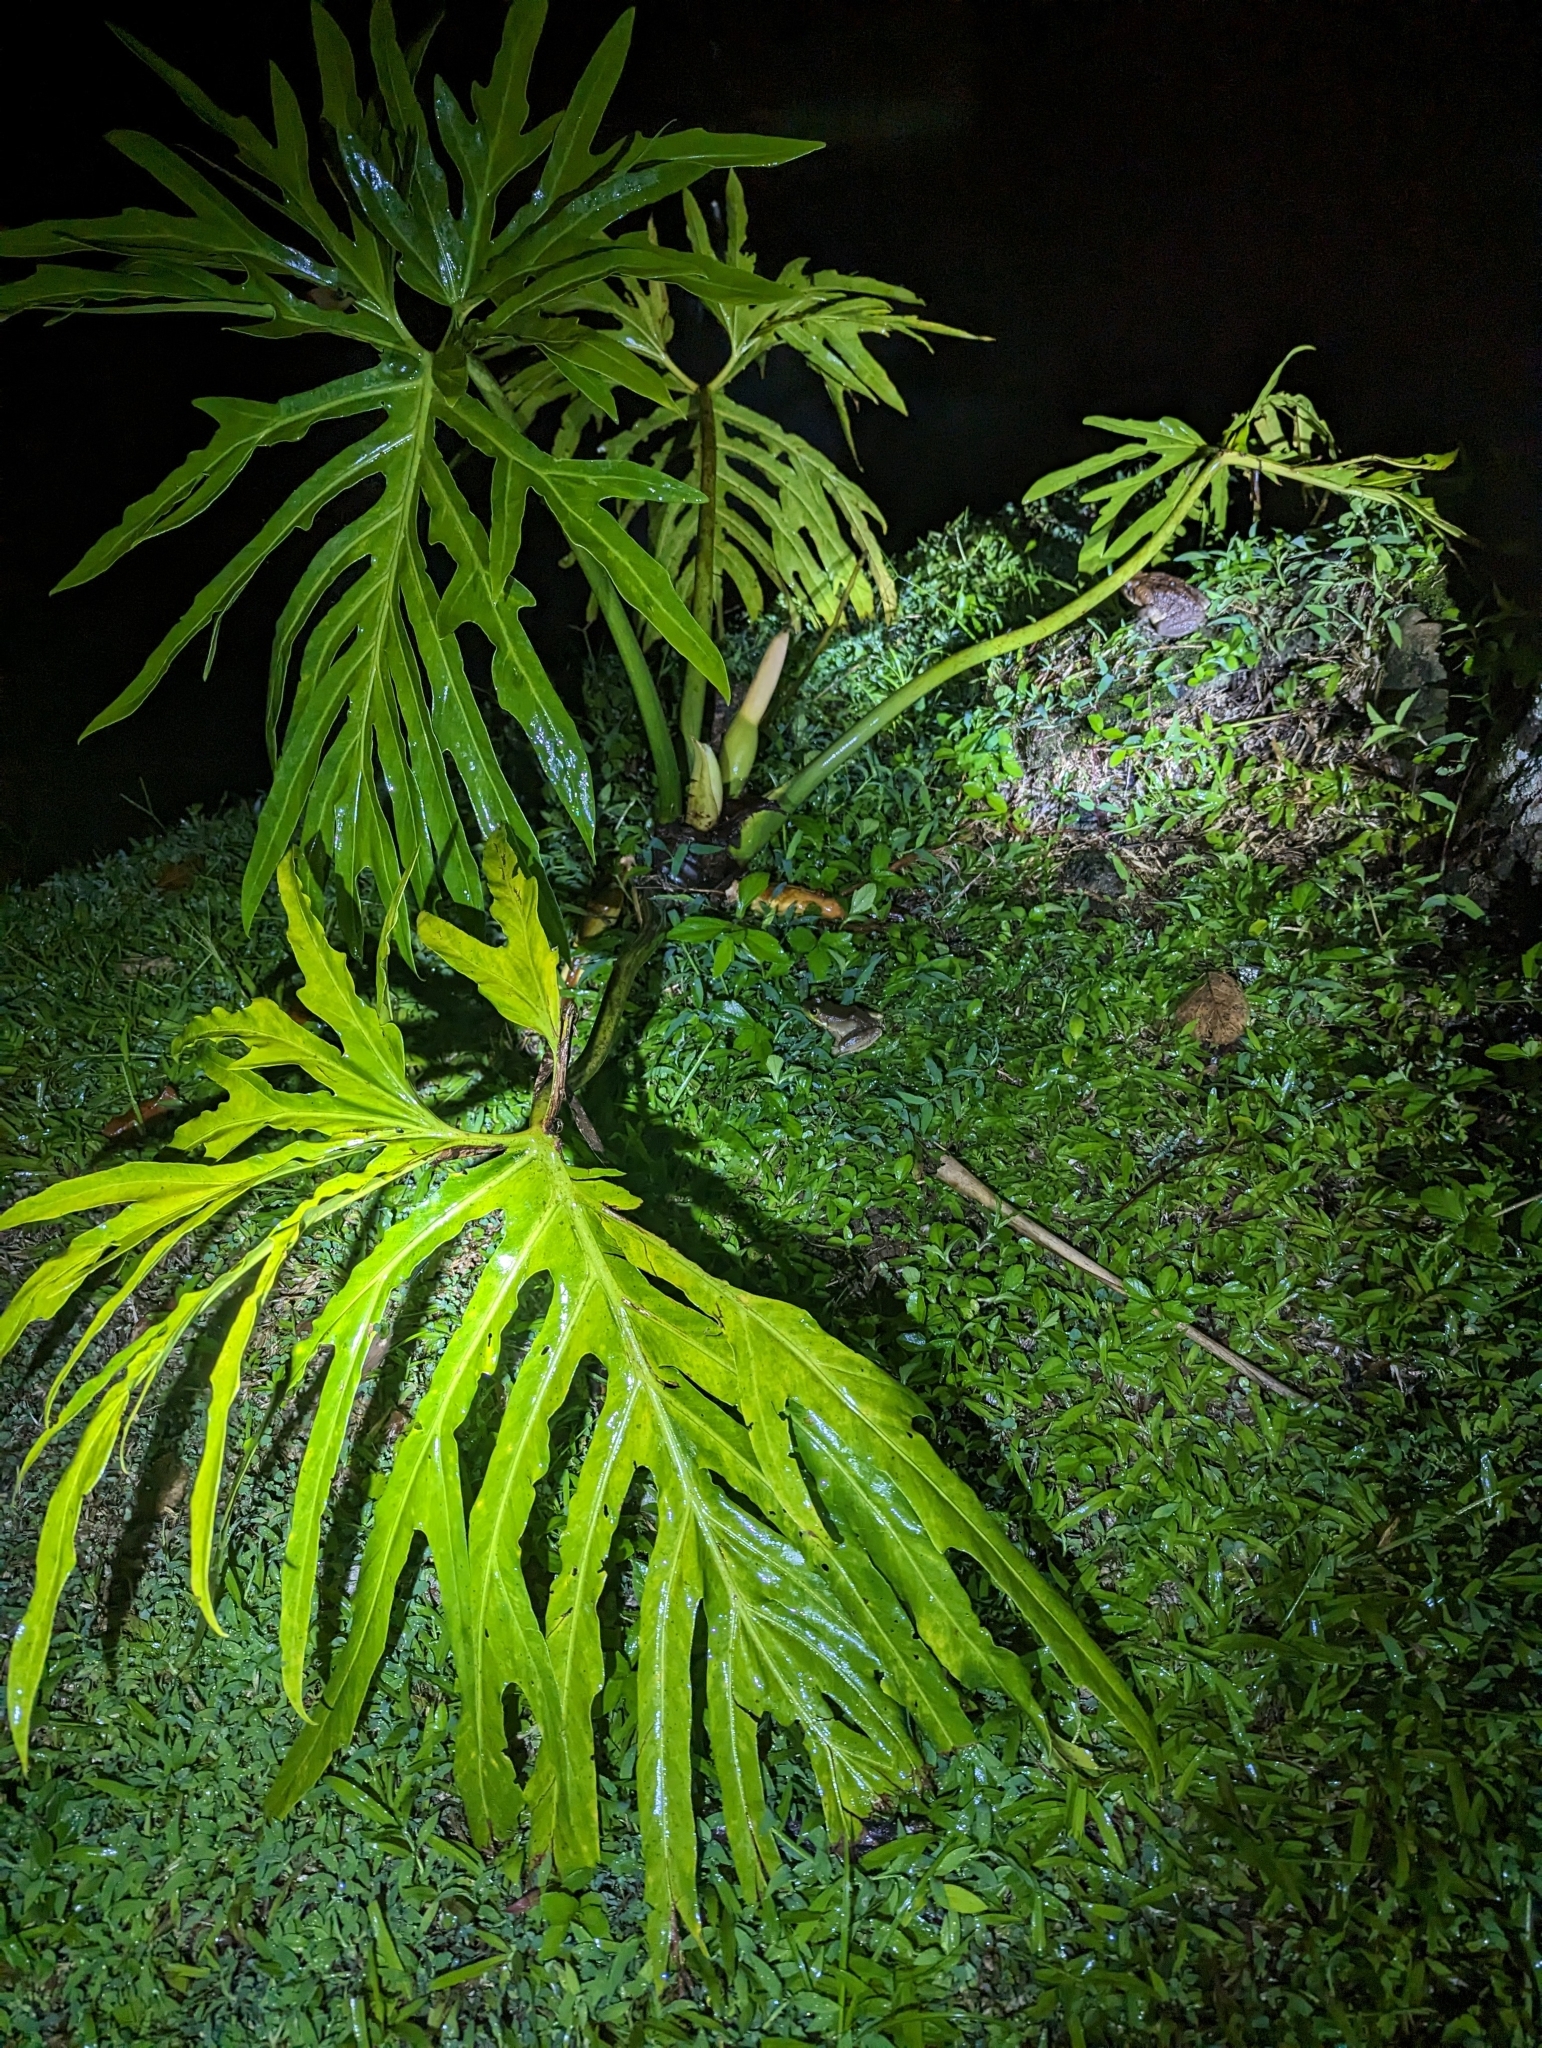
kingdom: Animalia
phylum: Chordata
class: Amphibia
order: Anura
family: Ranidae
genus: Lithobates
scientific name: Lithobates vaillanti
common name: Vaillant's frog
